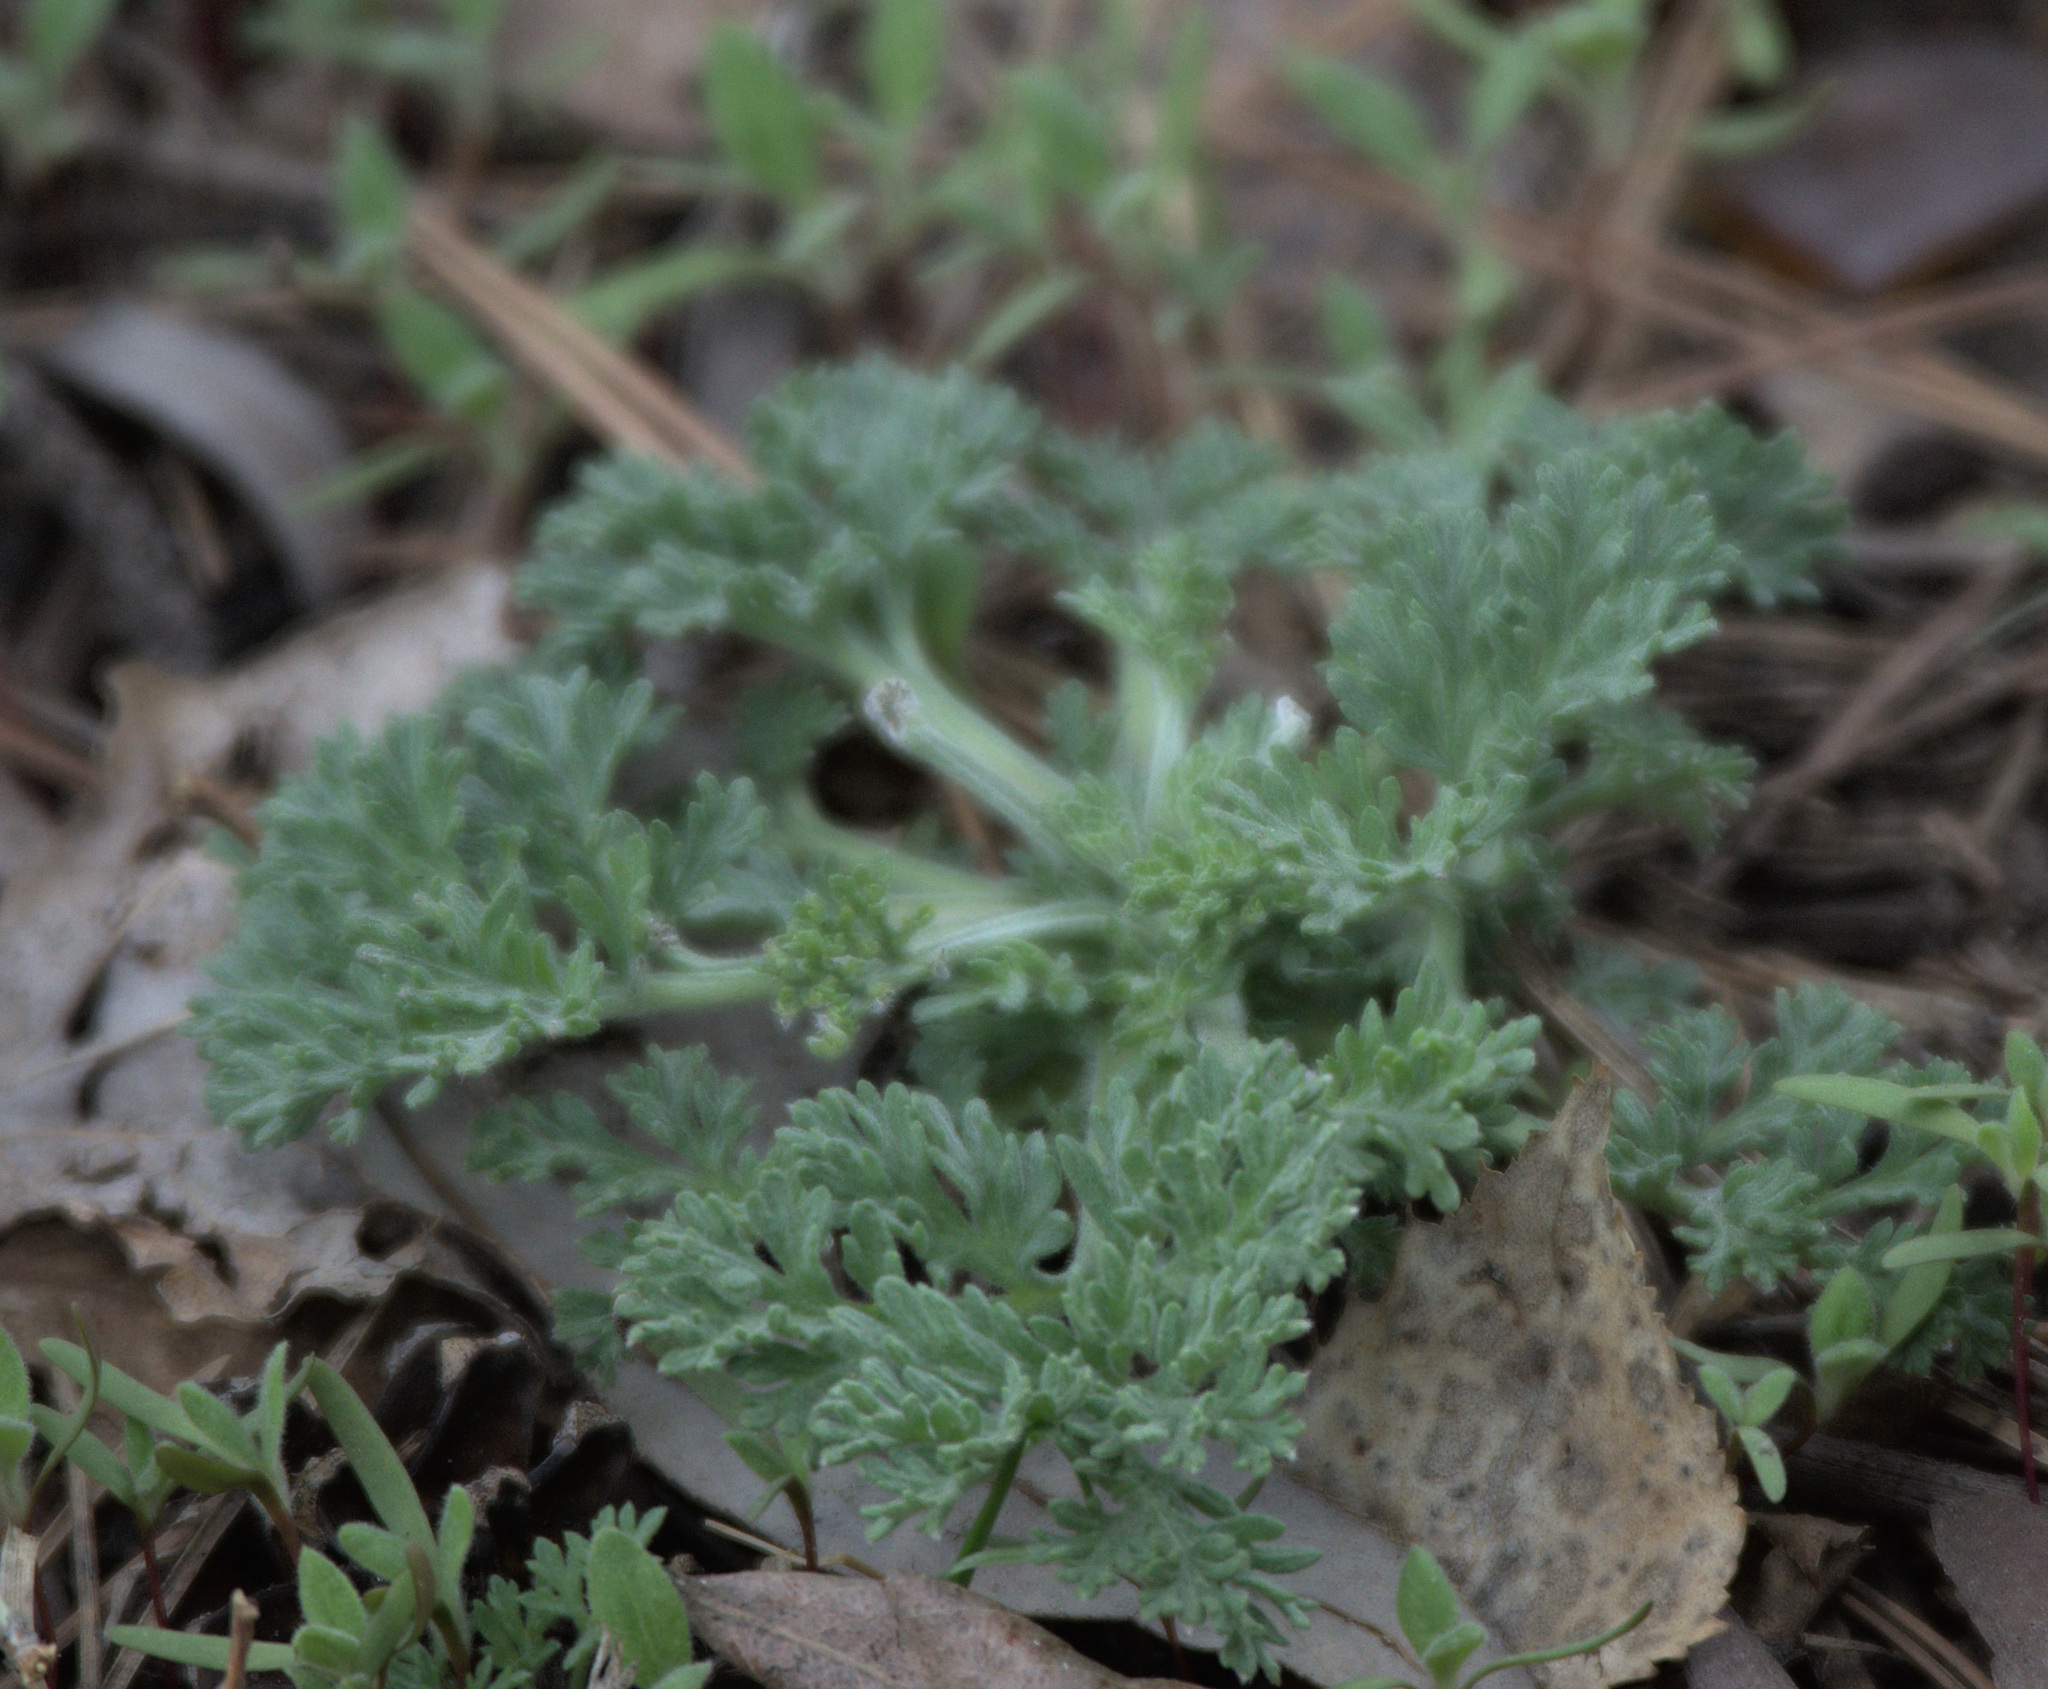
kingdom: Plantae
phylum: Tracheophyta
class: Magnoliopsida
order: Asterales
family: Asteraceae
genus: Artemisia
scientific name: Artemisia absinthium
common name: Wormwood
